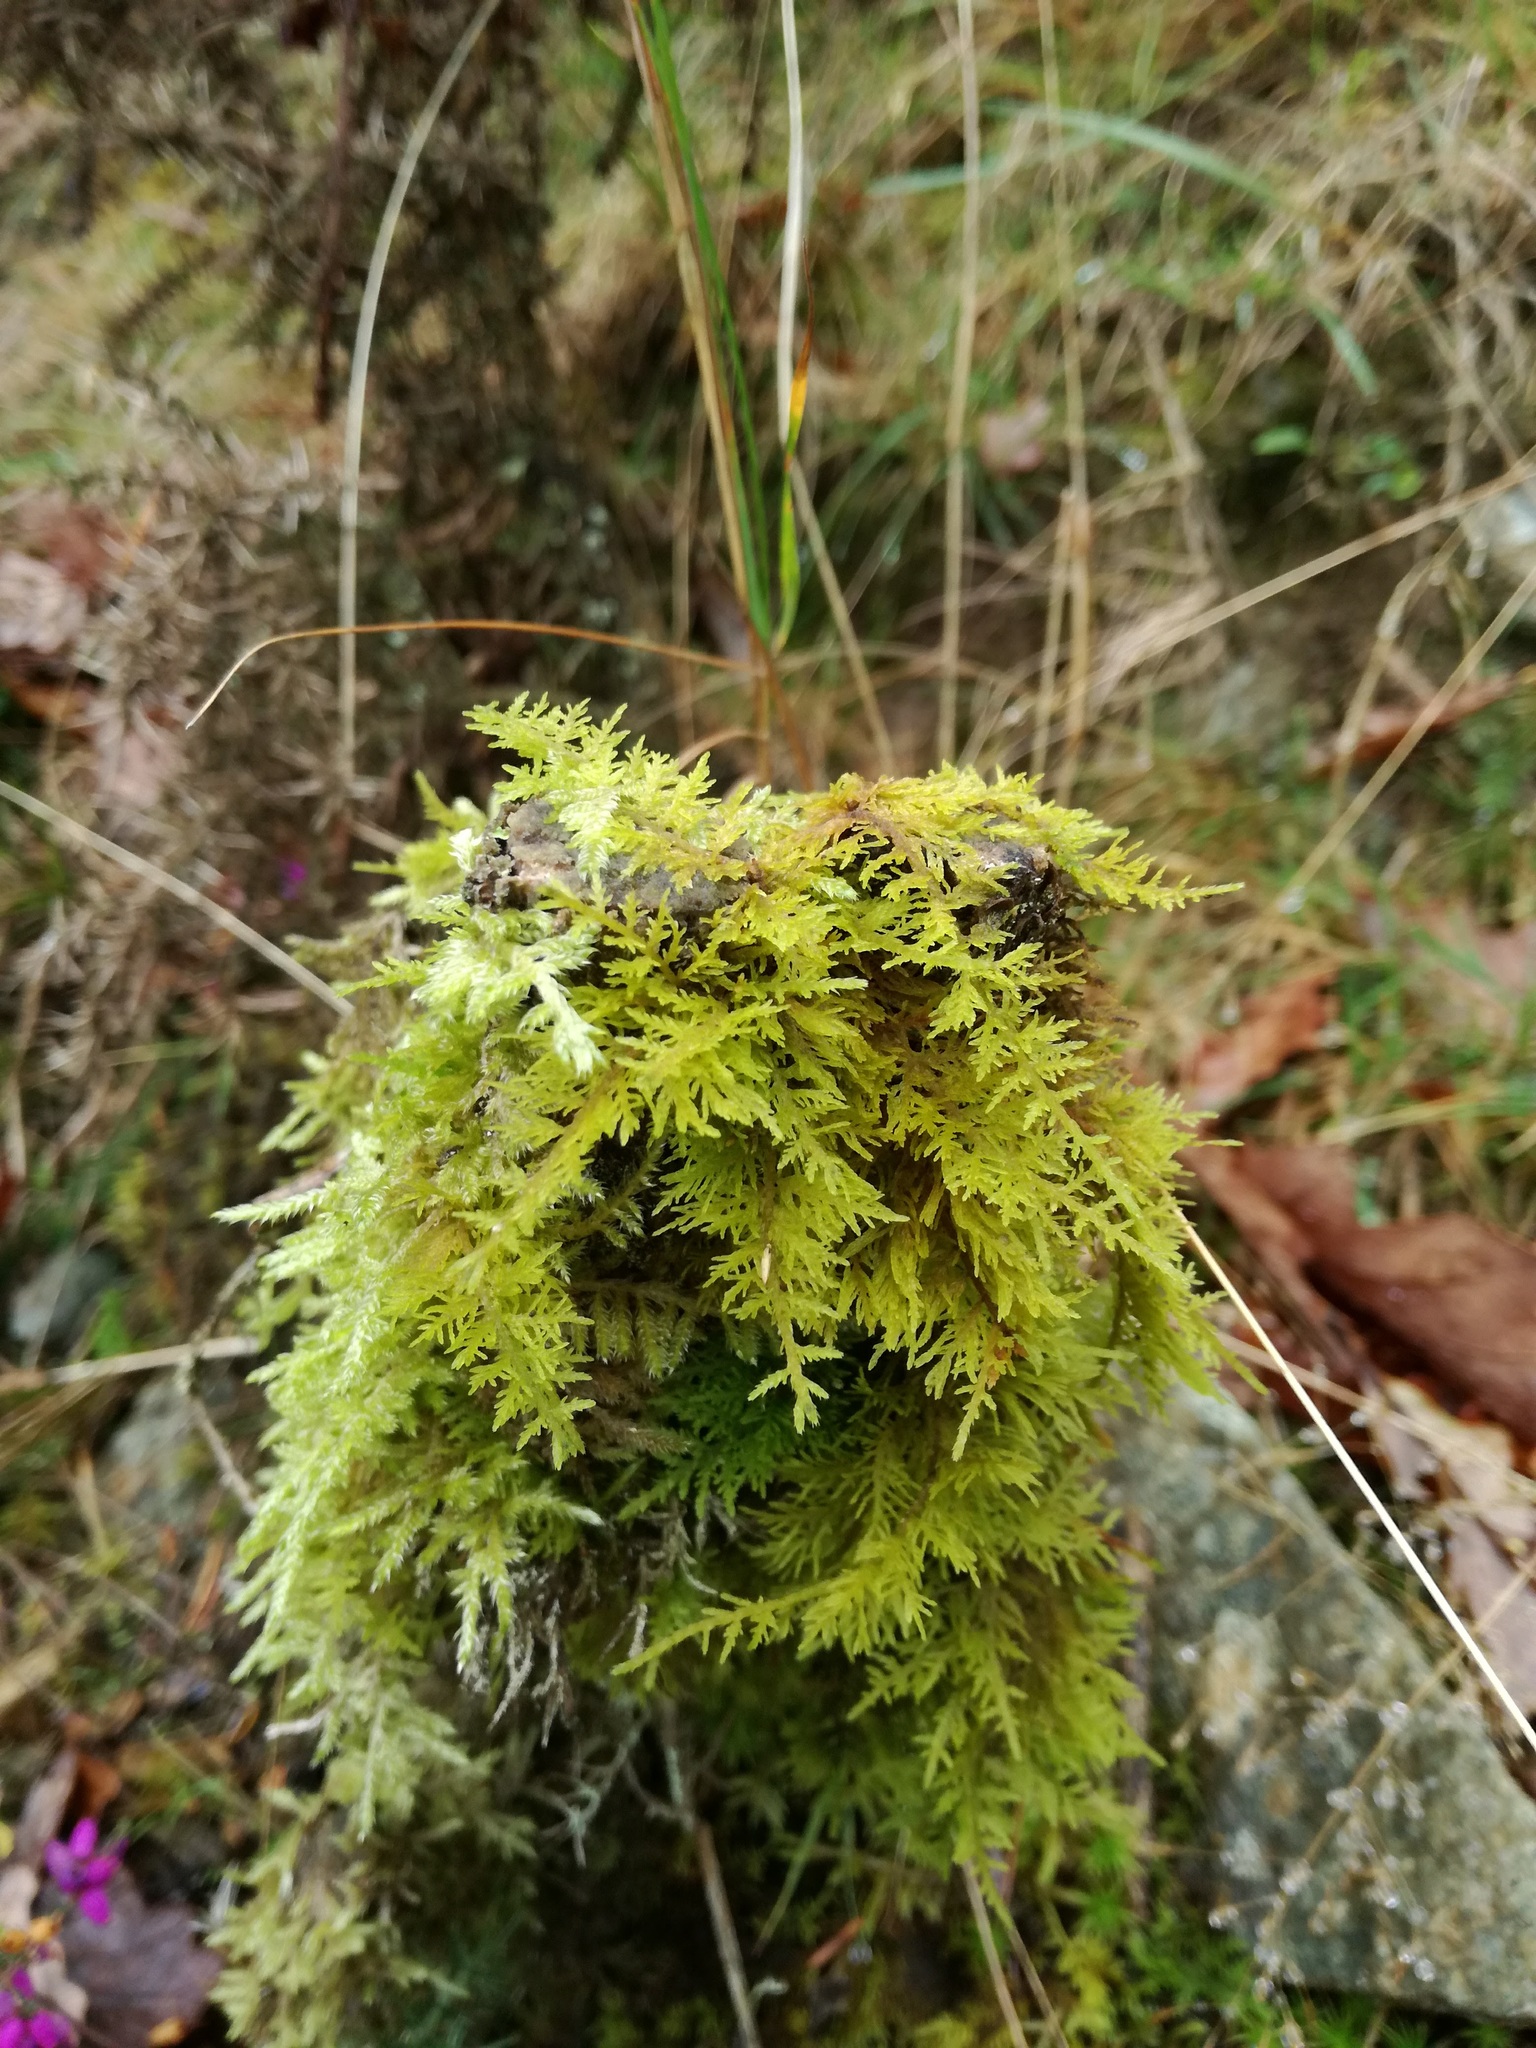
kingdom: Plantae
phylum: Bryophyta
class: Bryopsida
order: Hypnales
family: Thuidiaceae
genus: Thuidium
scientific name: Thuidium tamariscinum
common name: Common tamarisk-moss
